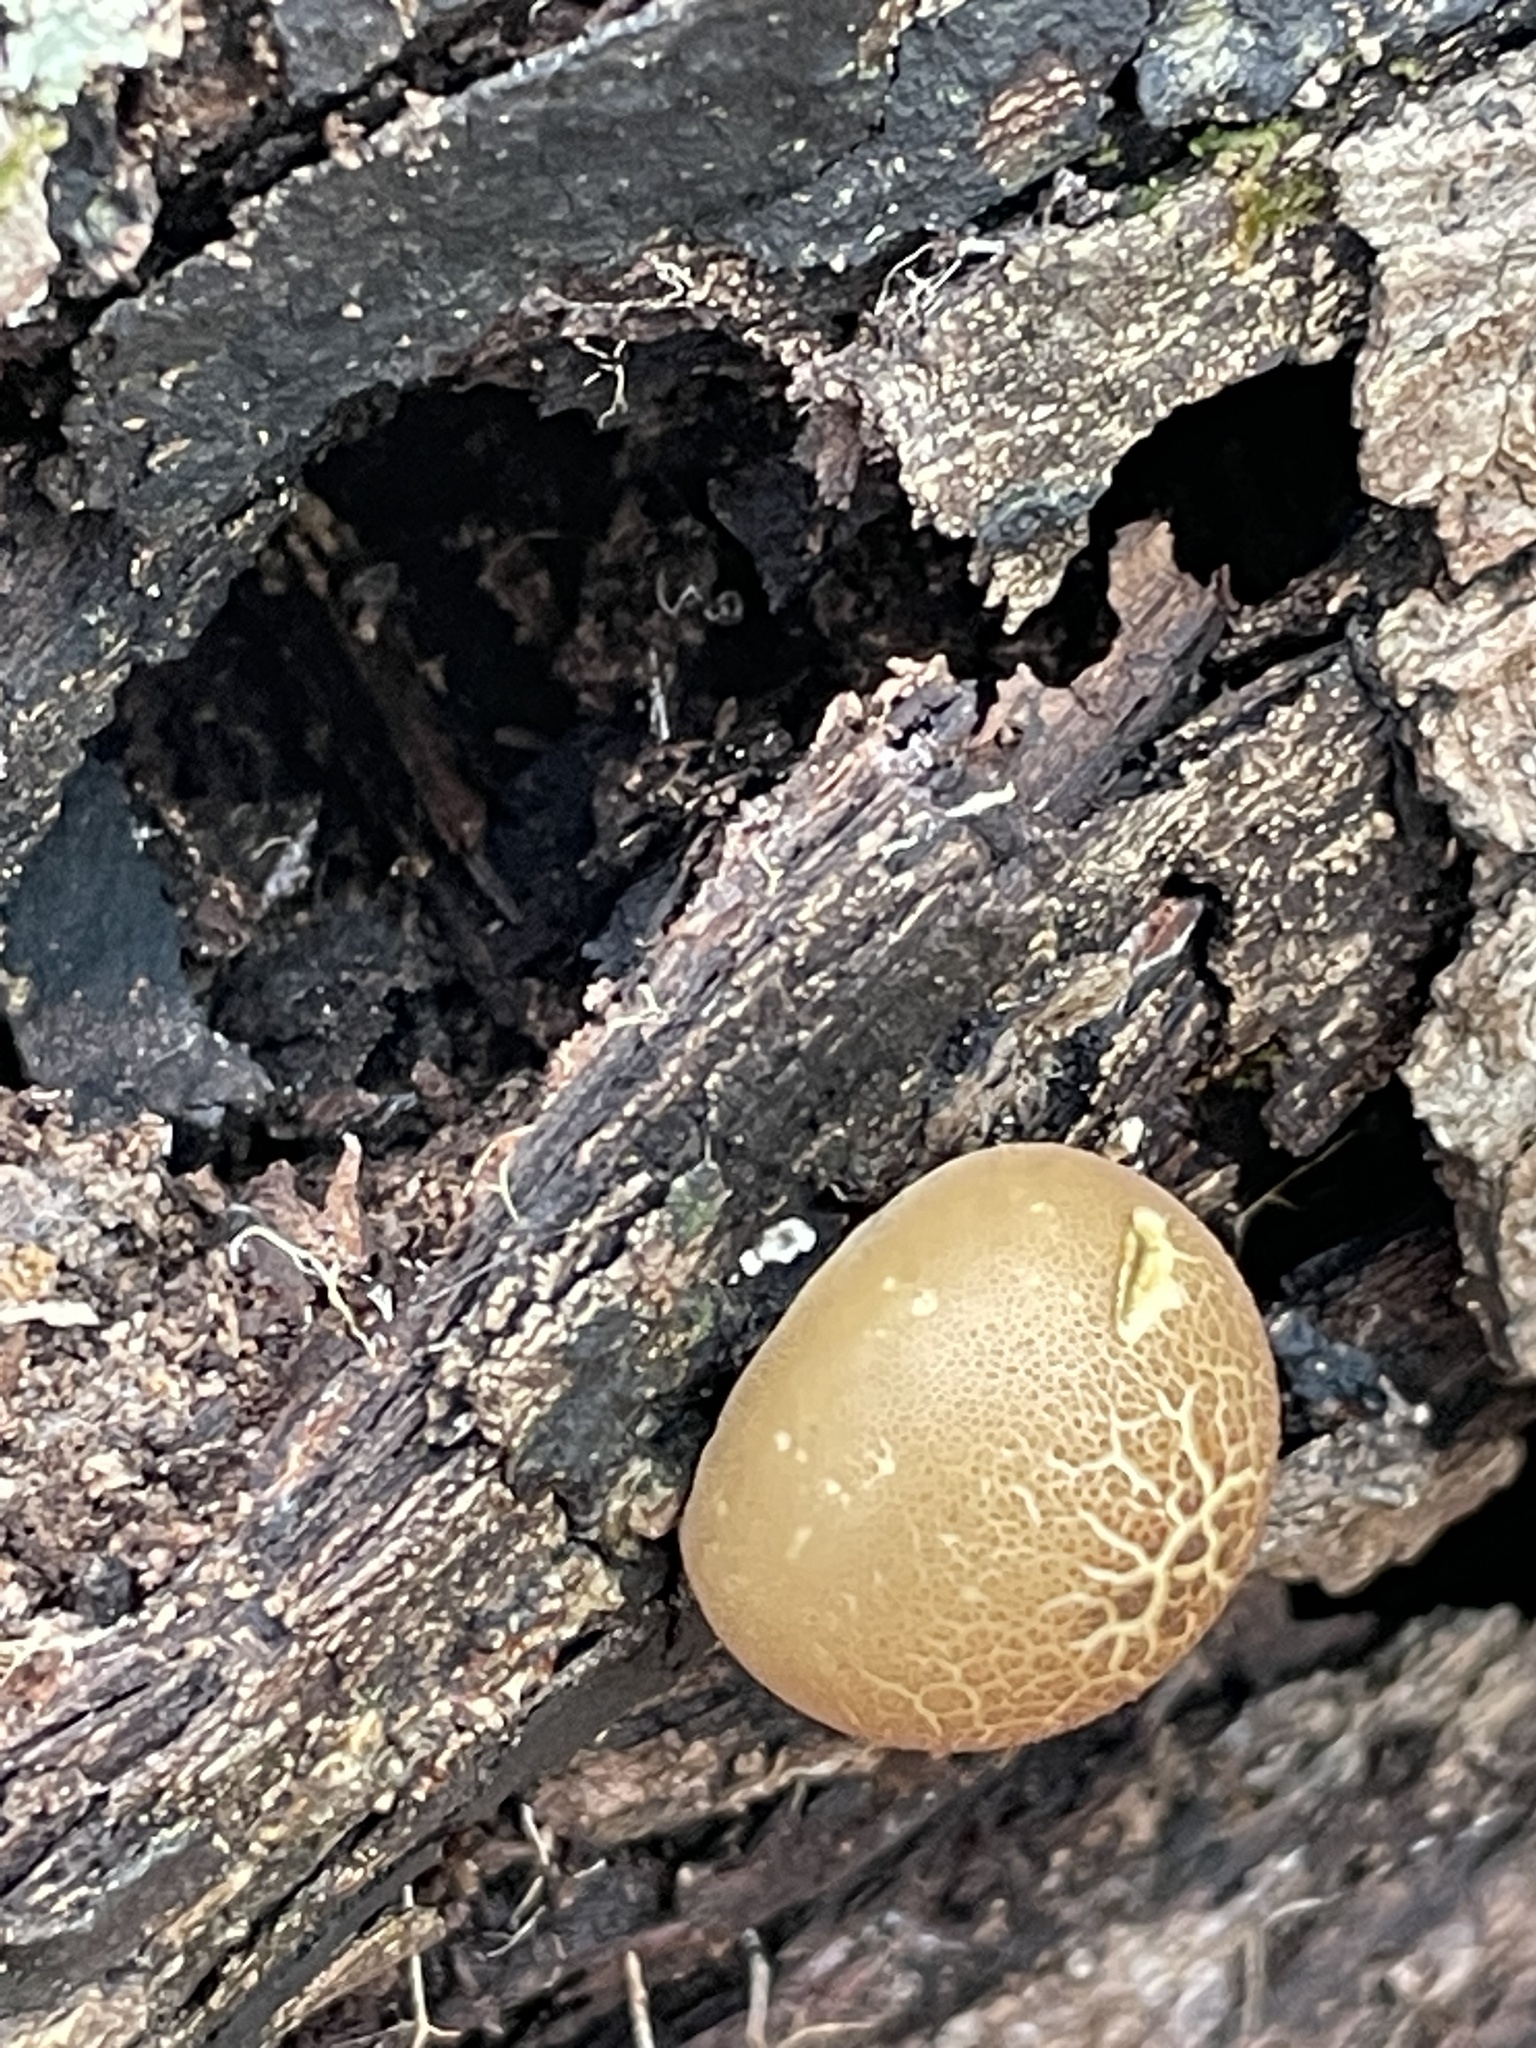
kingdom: Fungi
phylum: Basidiomycota
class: Agaricomycetes
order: Agaricales
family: Lycoperdaceae
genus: Apioperdon
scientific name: Apioperdon pyriforme
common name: Pear-shaped puffball
